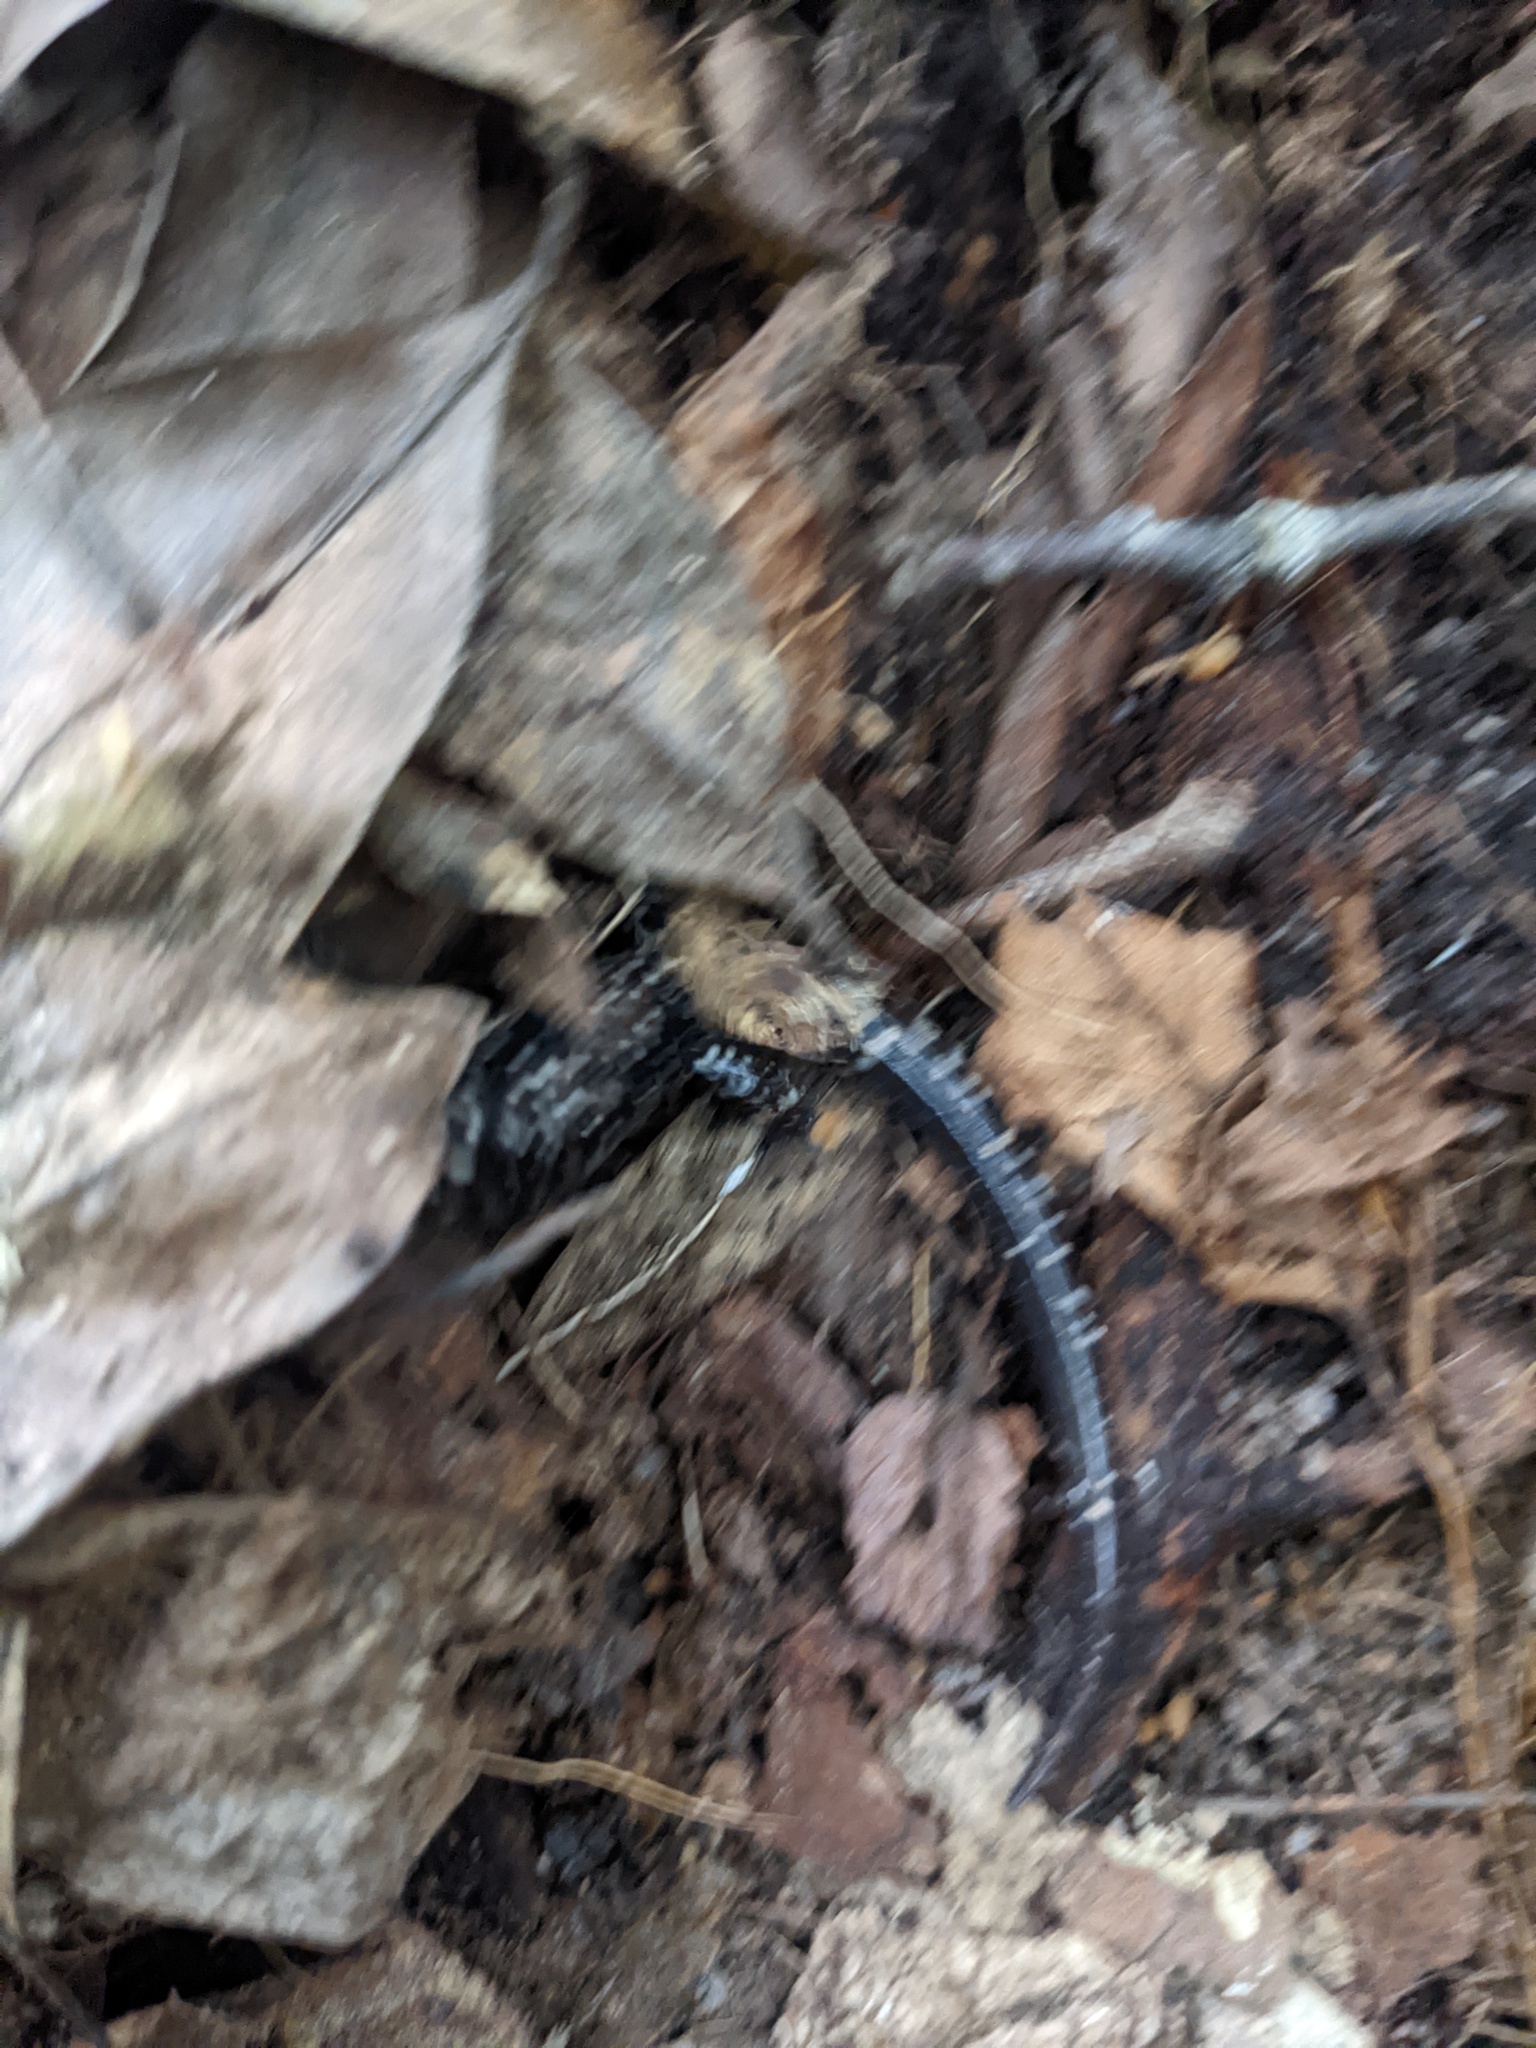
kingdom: Animalia
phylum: Chordata
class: Amphibia
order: Caudata
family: Plethodontidae
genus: Plethodon
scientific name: Plethodon glutinosus
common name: Northern slimy salamander
